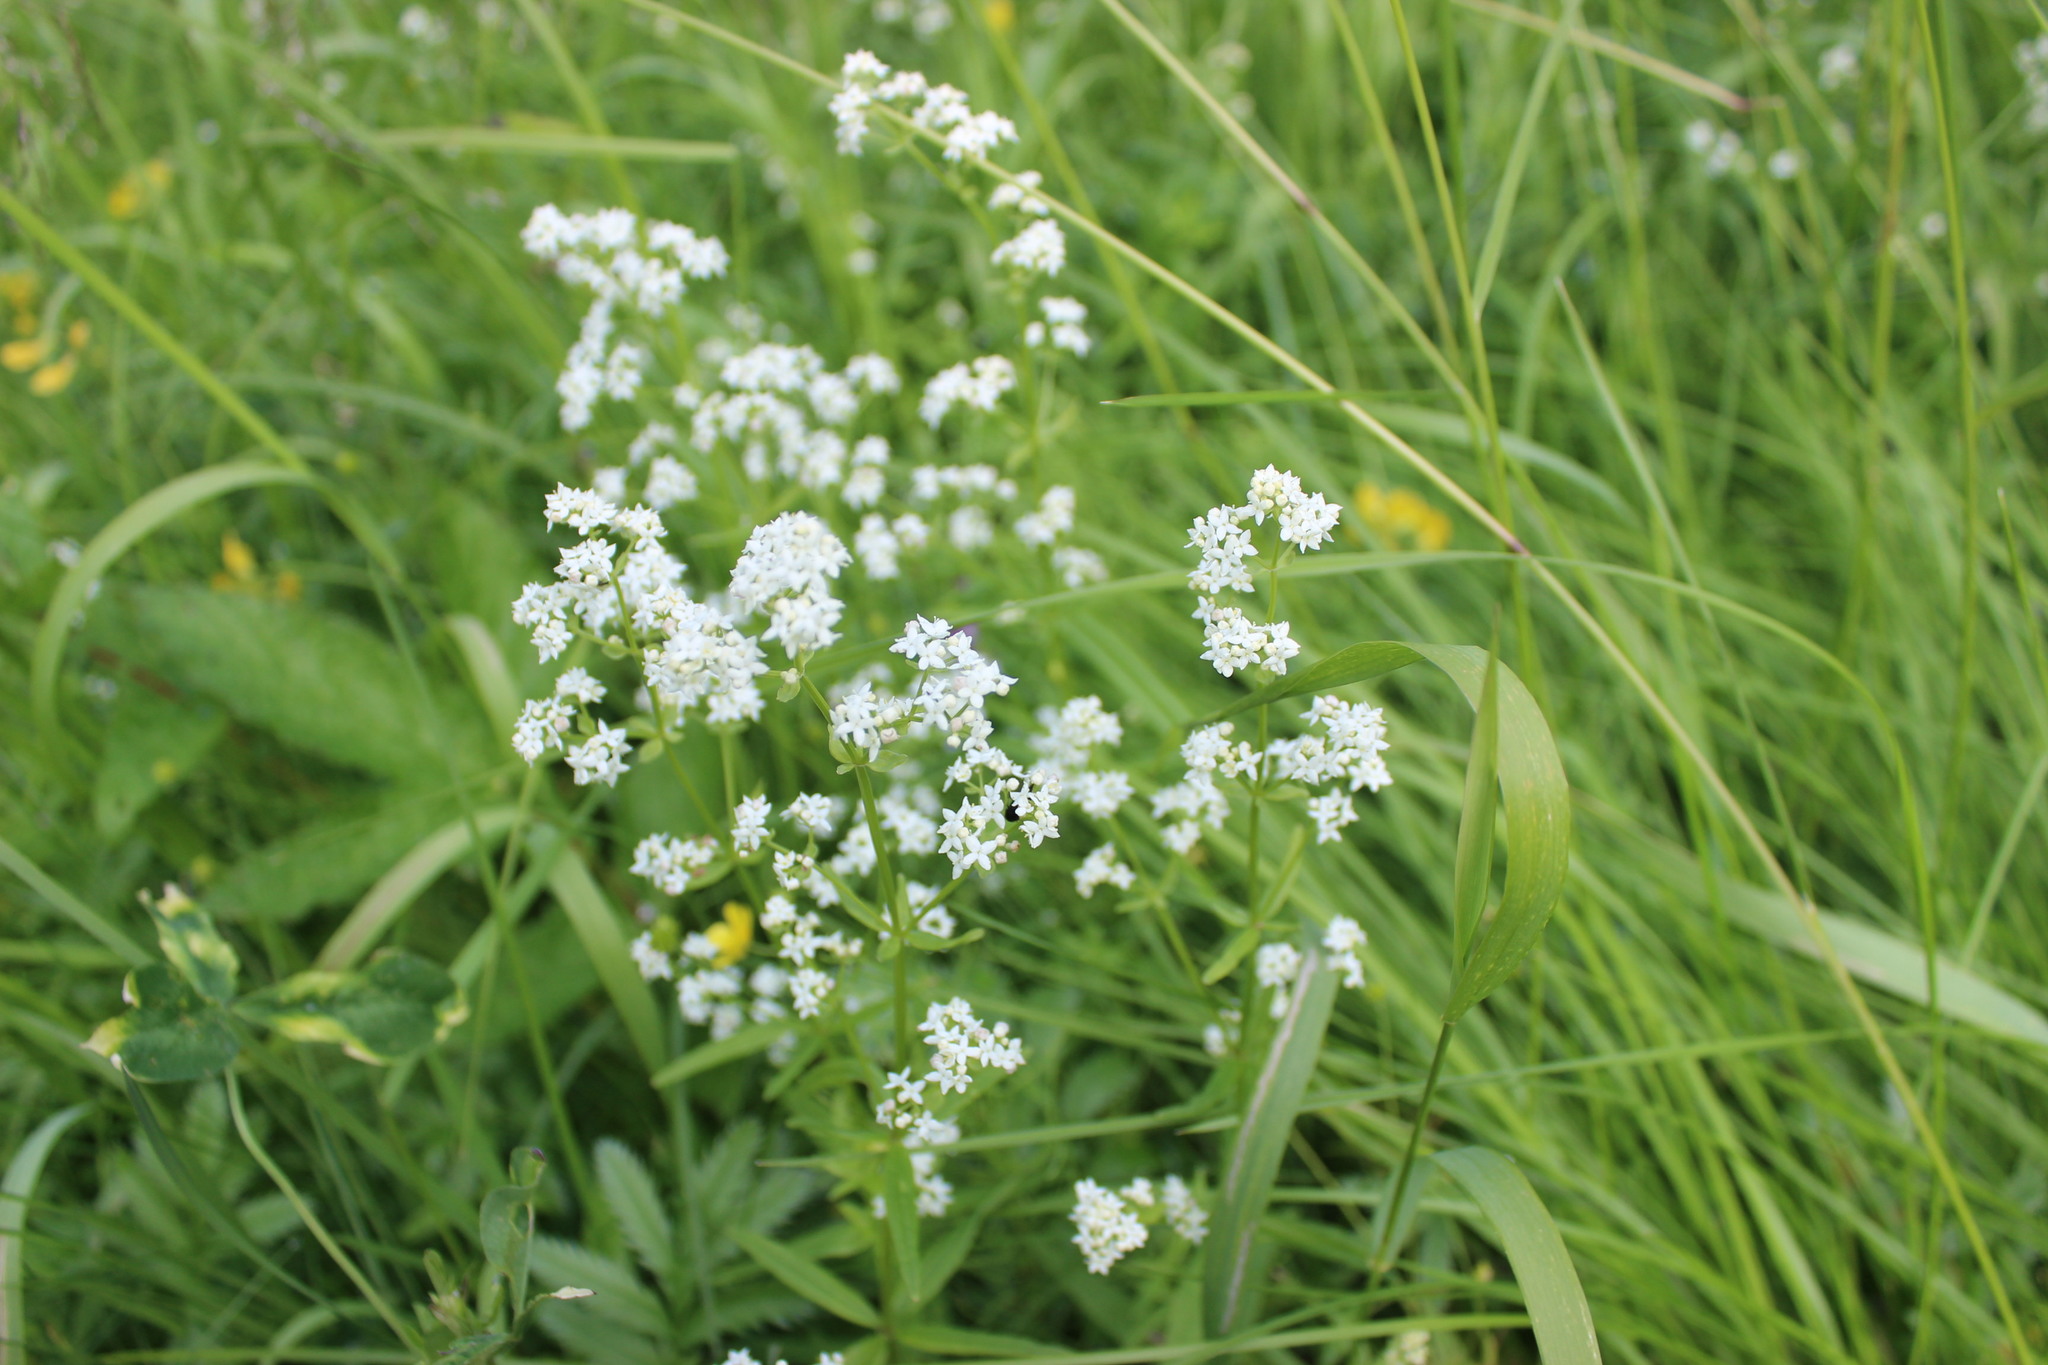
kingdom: Plantae
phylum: Tracheophyta
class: Magnoliopsida
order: Gentianales
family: Rubiaceae
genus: Galium
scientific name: Galium boreale
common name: Northern bedstraw
